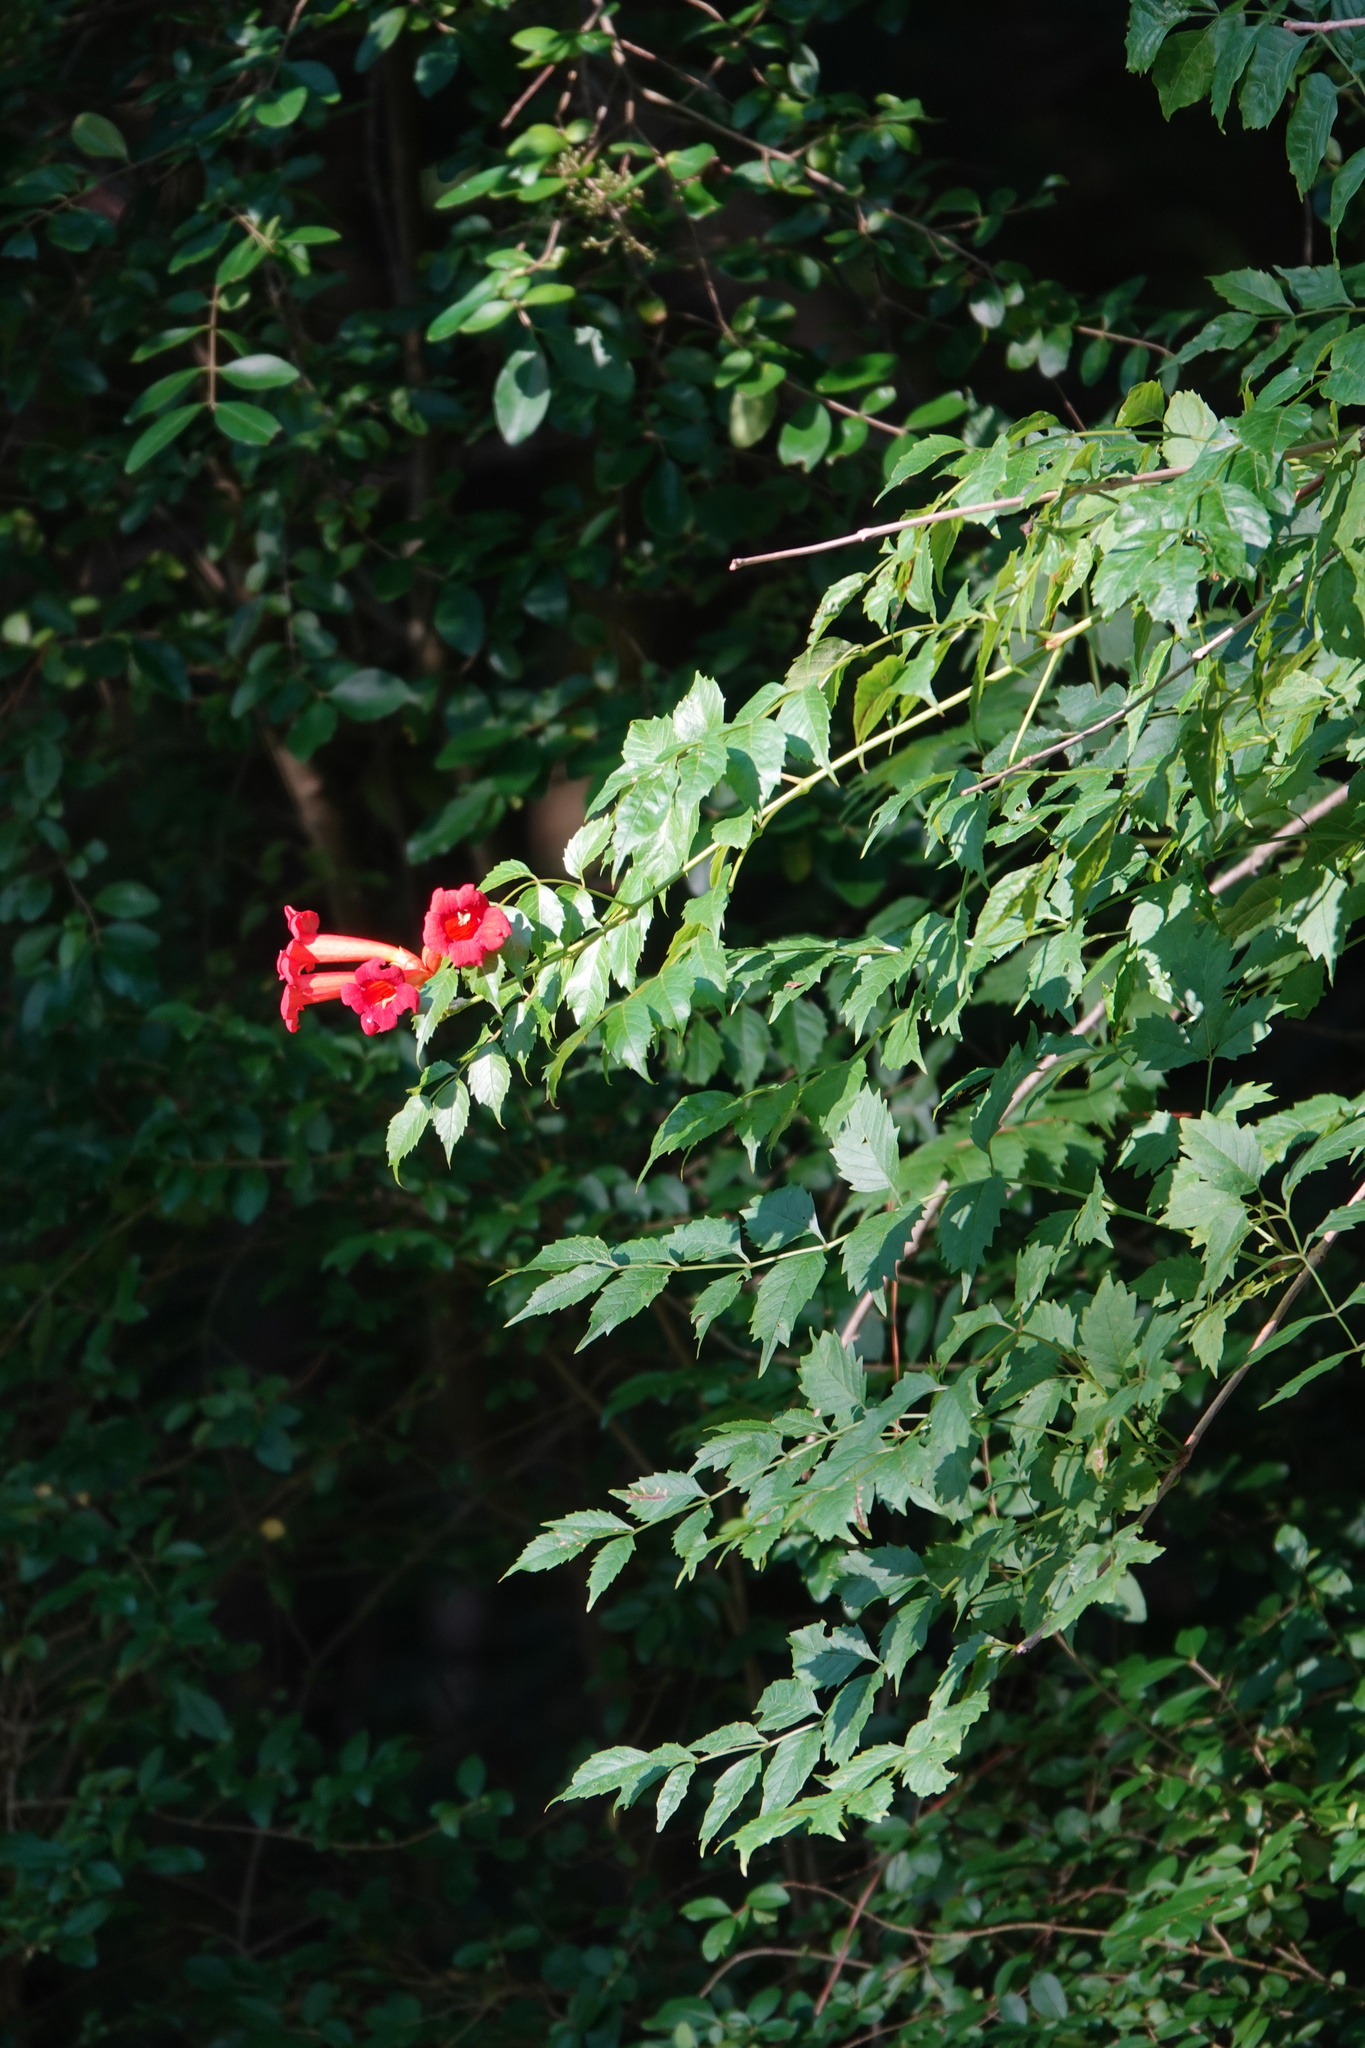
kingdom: Plantae
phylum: Tracheophyta
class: Magnoliopsida
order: Lamiales
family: Bignoniaceae
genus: Campsis
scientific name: Campsis radicans
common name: Trumpet-creeper
